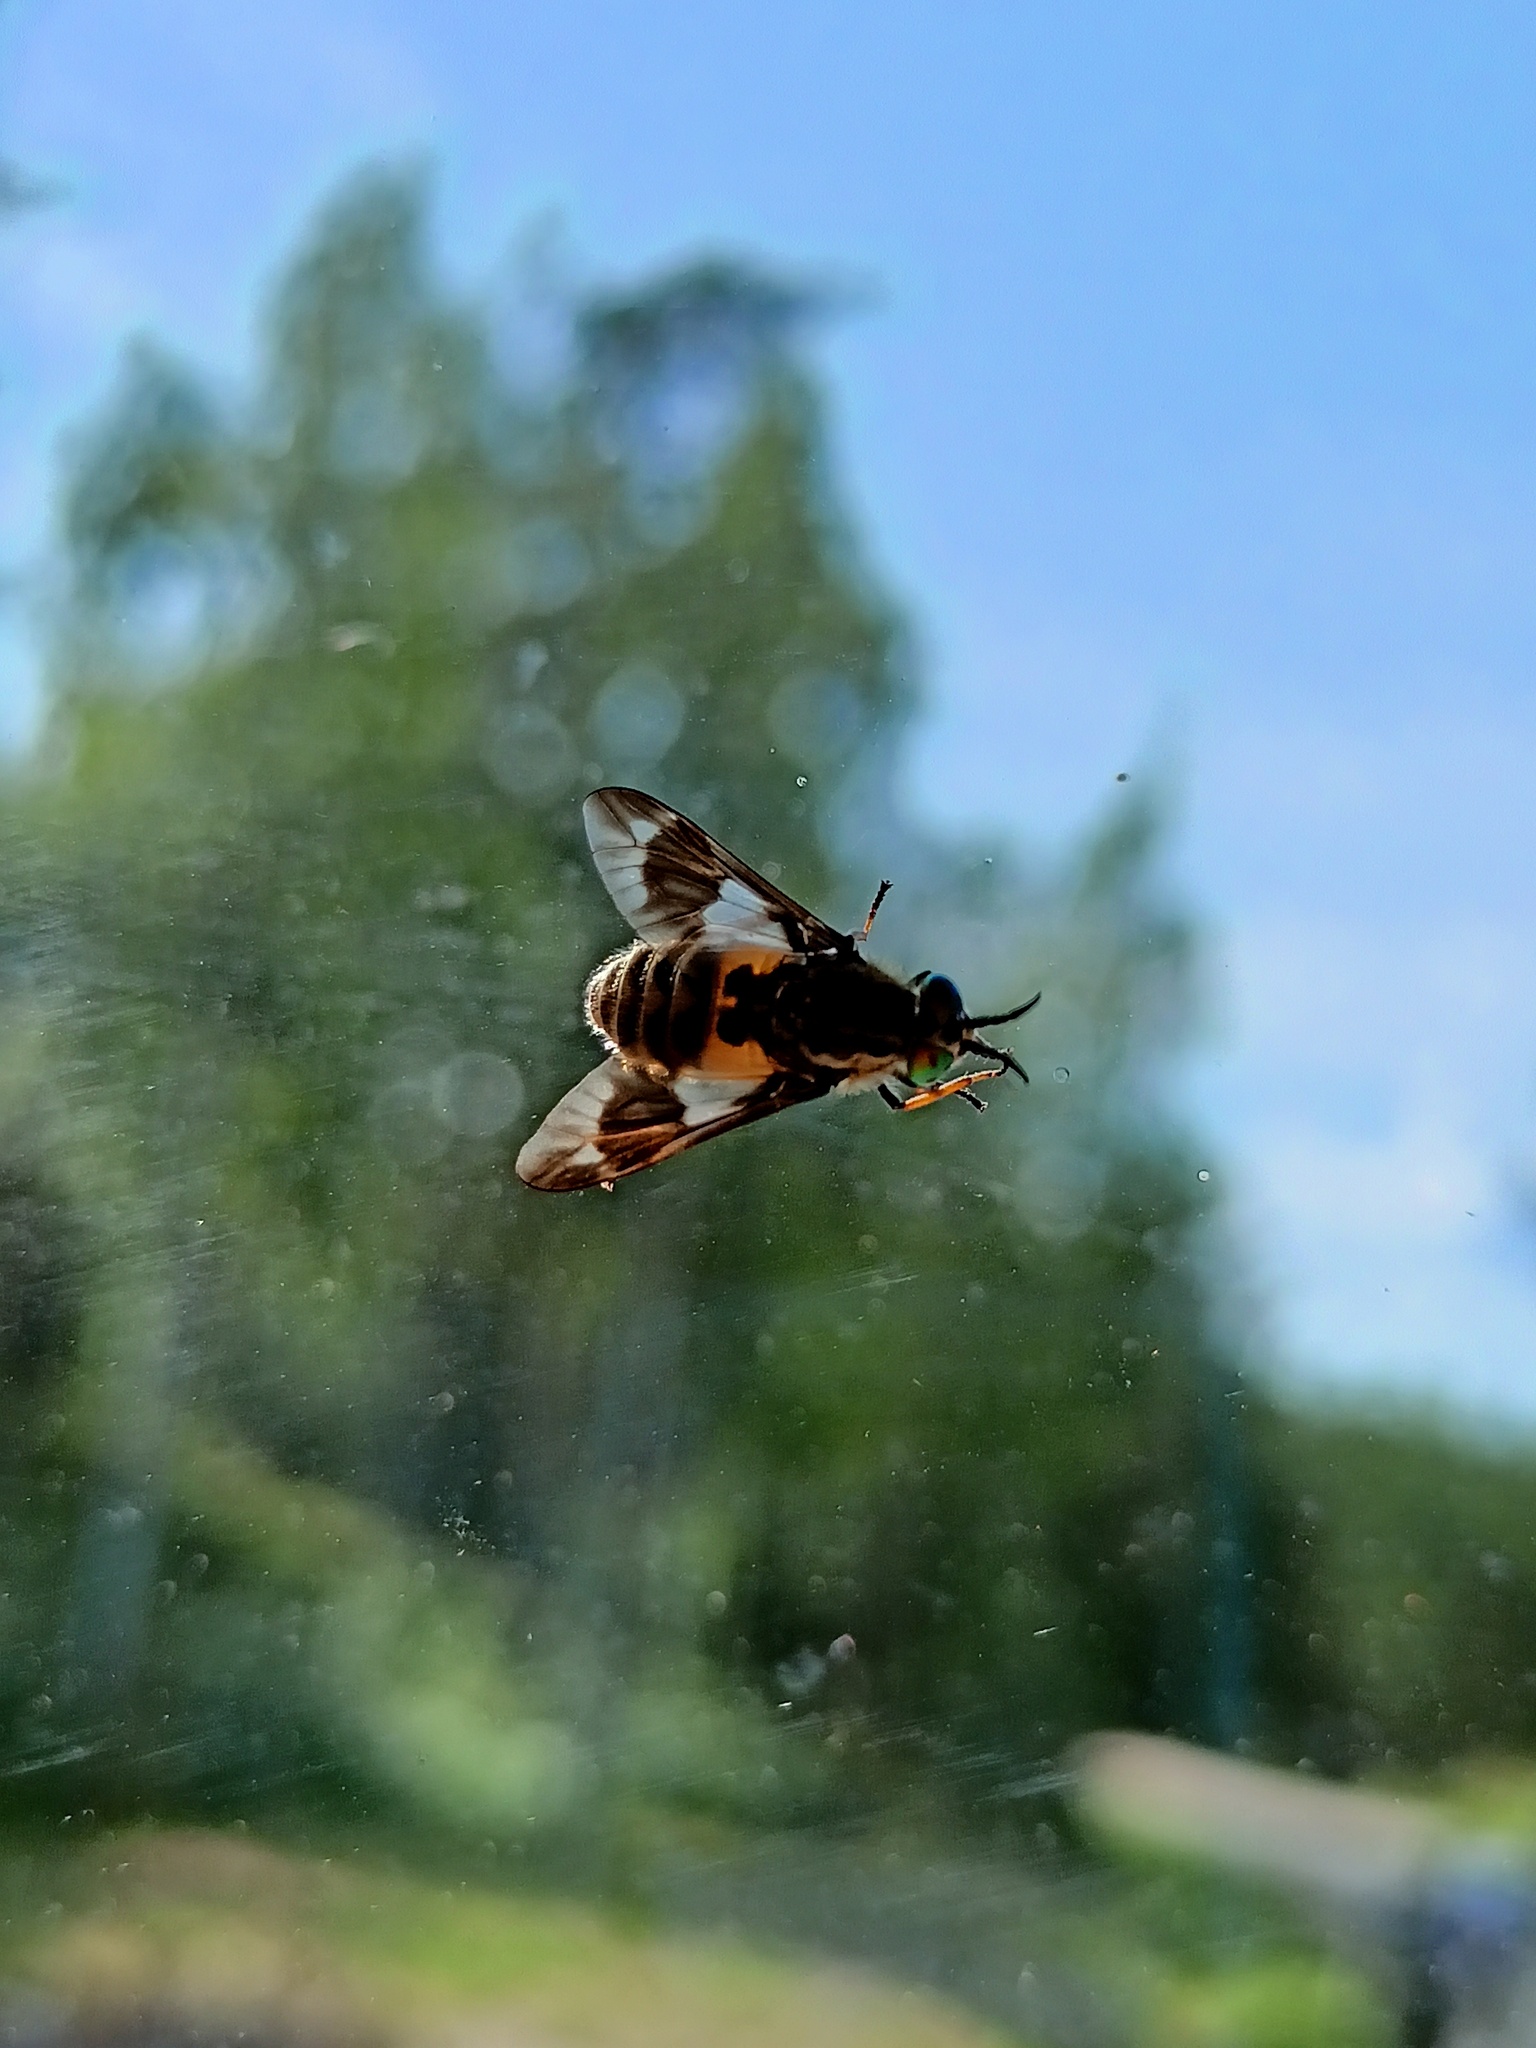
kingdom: Animalia
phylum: Arthropoda
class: Insecta
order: Diptera
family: Tabanidae
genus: Chrysops
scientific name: Chrysops relictus
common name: Twin-lobed deerfly
